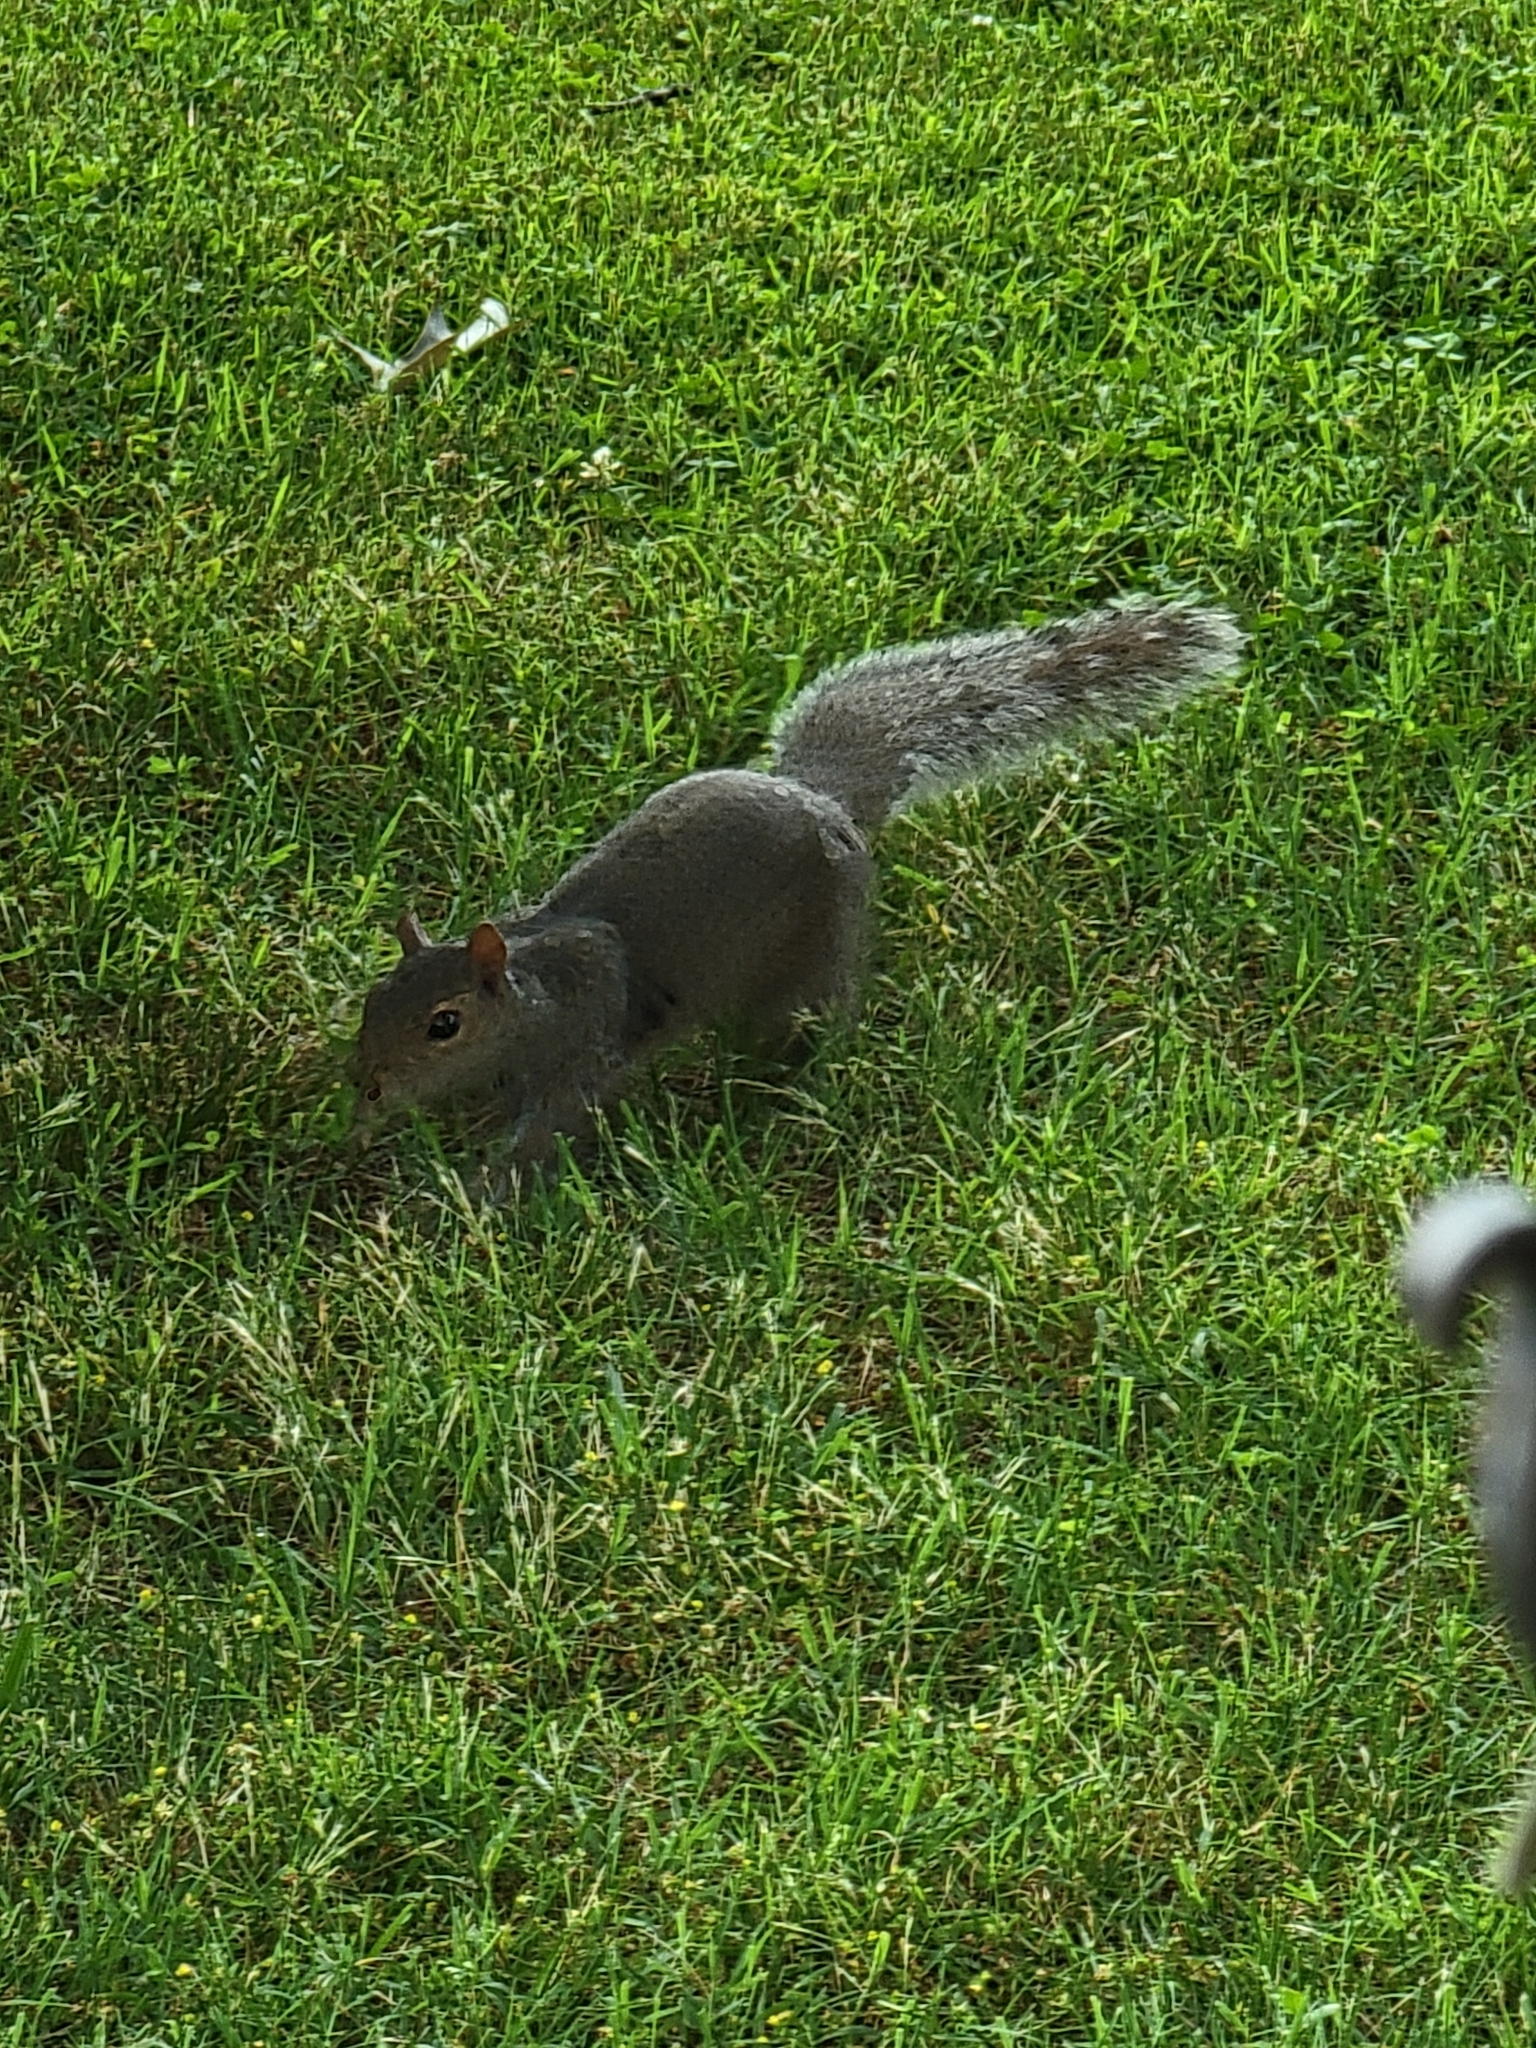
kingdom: Animalia
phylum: Chordata
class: Mammalia
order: Rodentia
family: Sciuridae
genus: Sciurus
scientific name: Sciurus carolinensis
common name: Eastern gray squirrel
